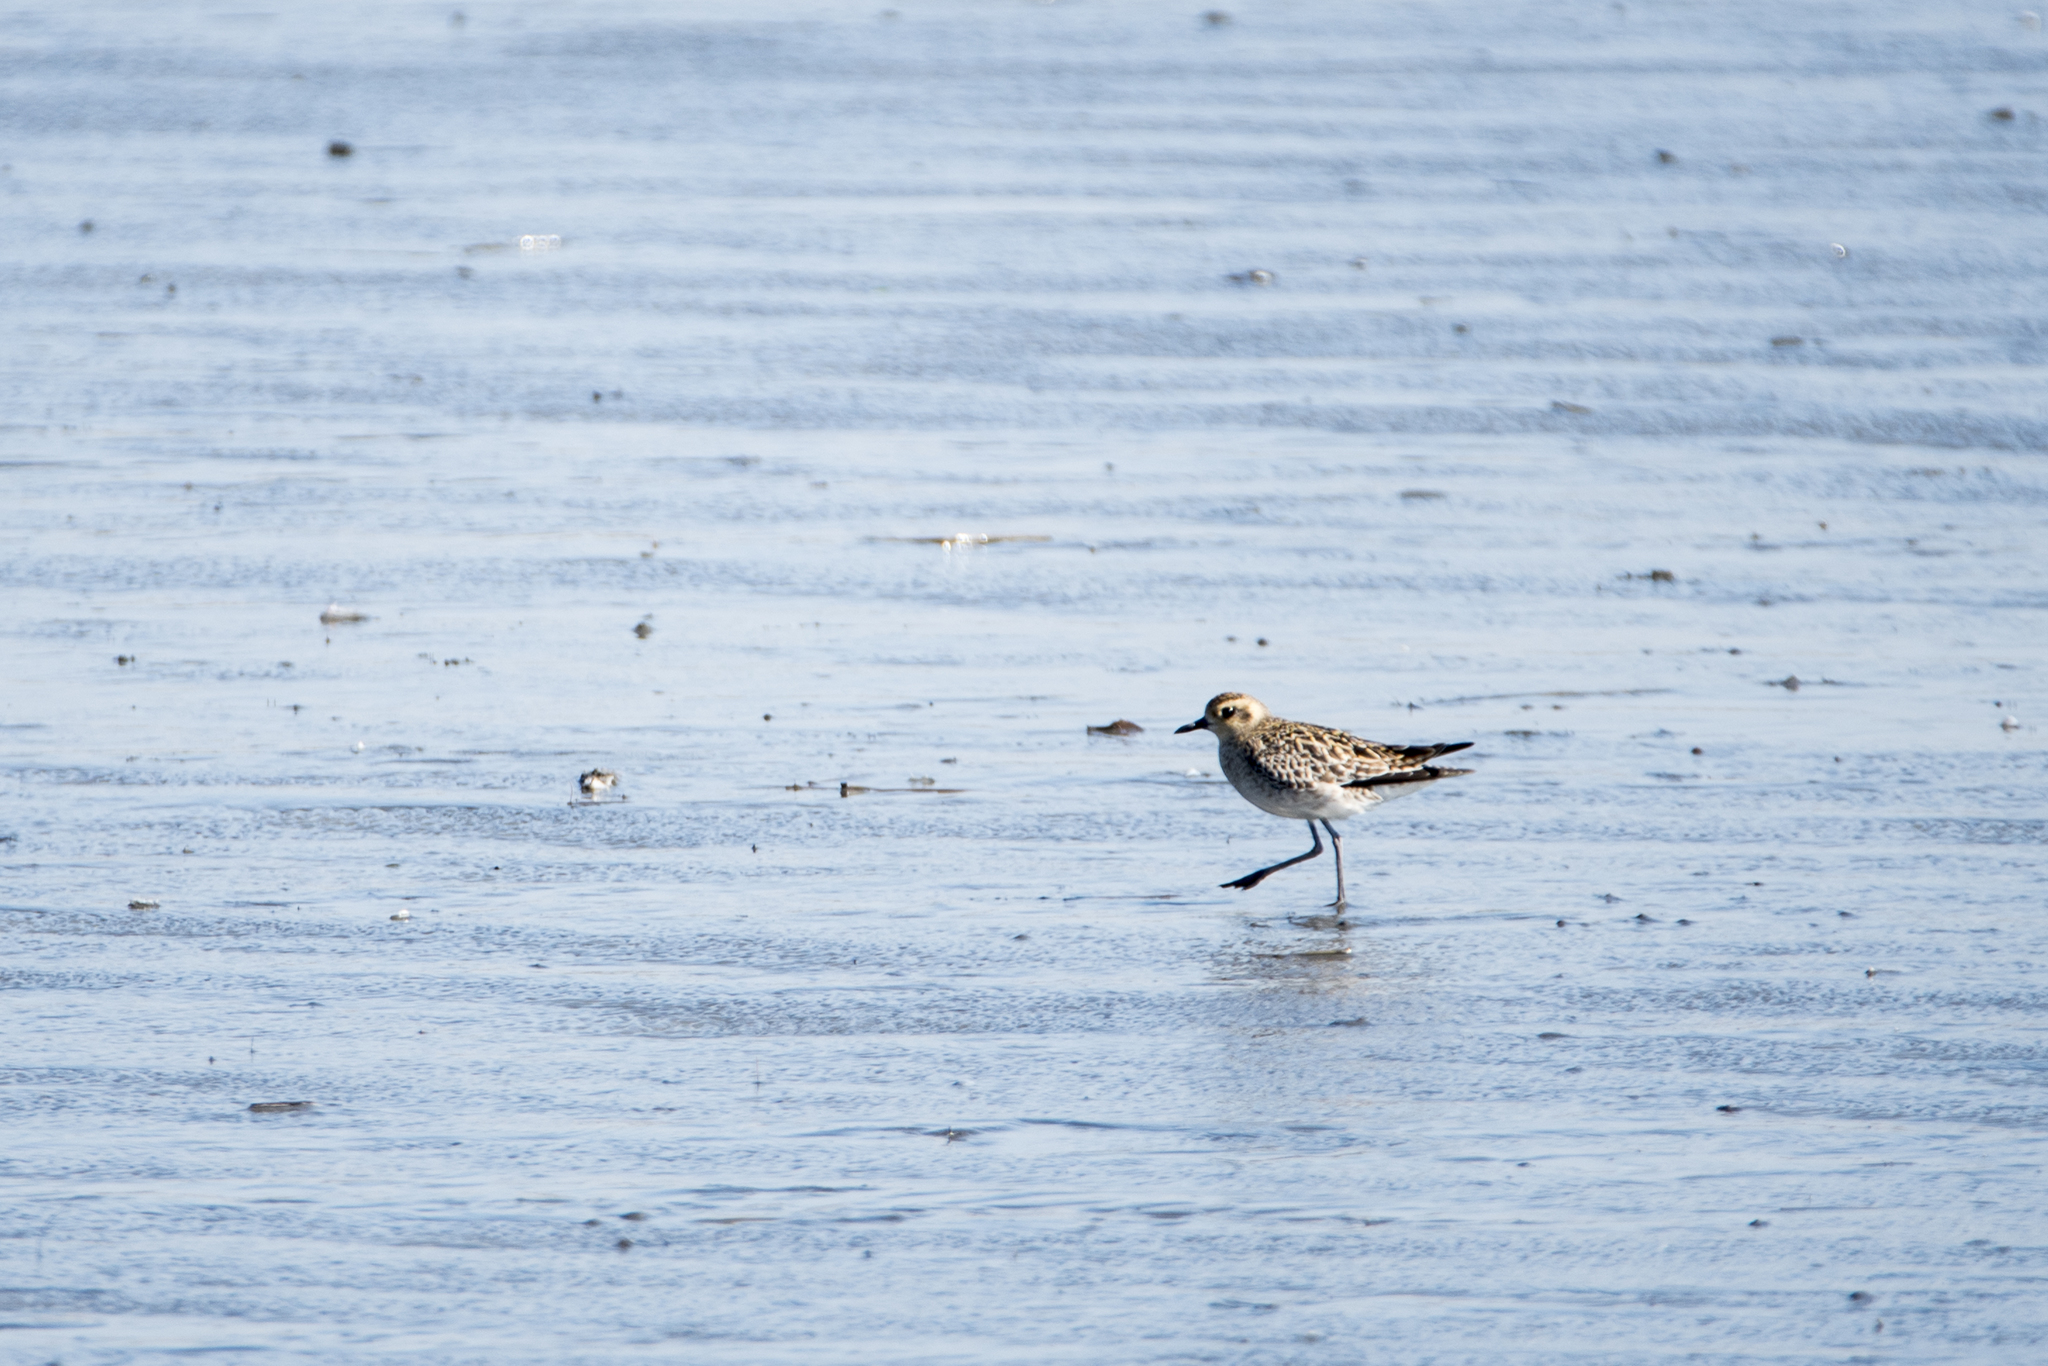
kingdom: Animalia
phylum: Chordata
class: Aves
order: Charadriiformes
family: Charadriidae
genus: Pluvialis
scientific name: Pluvialis fulva
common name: Pacific golden plover
